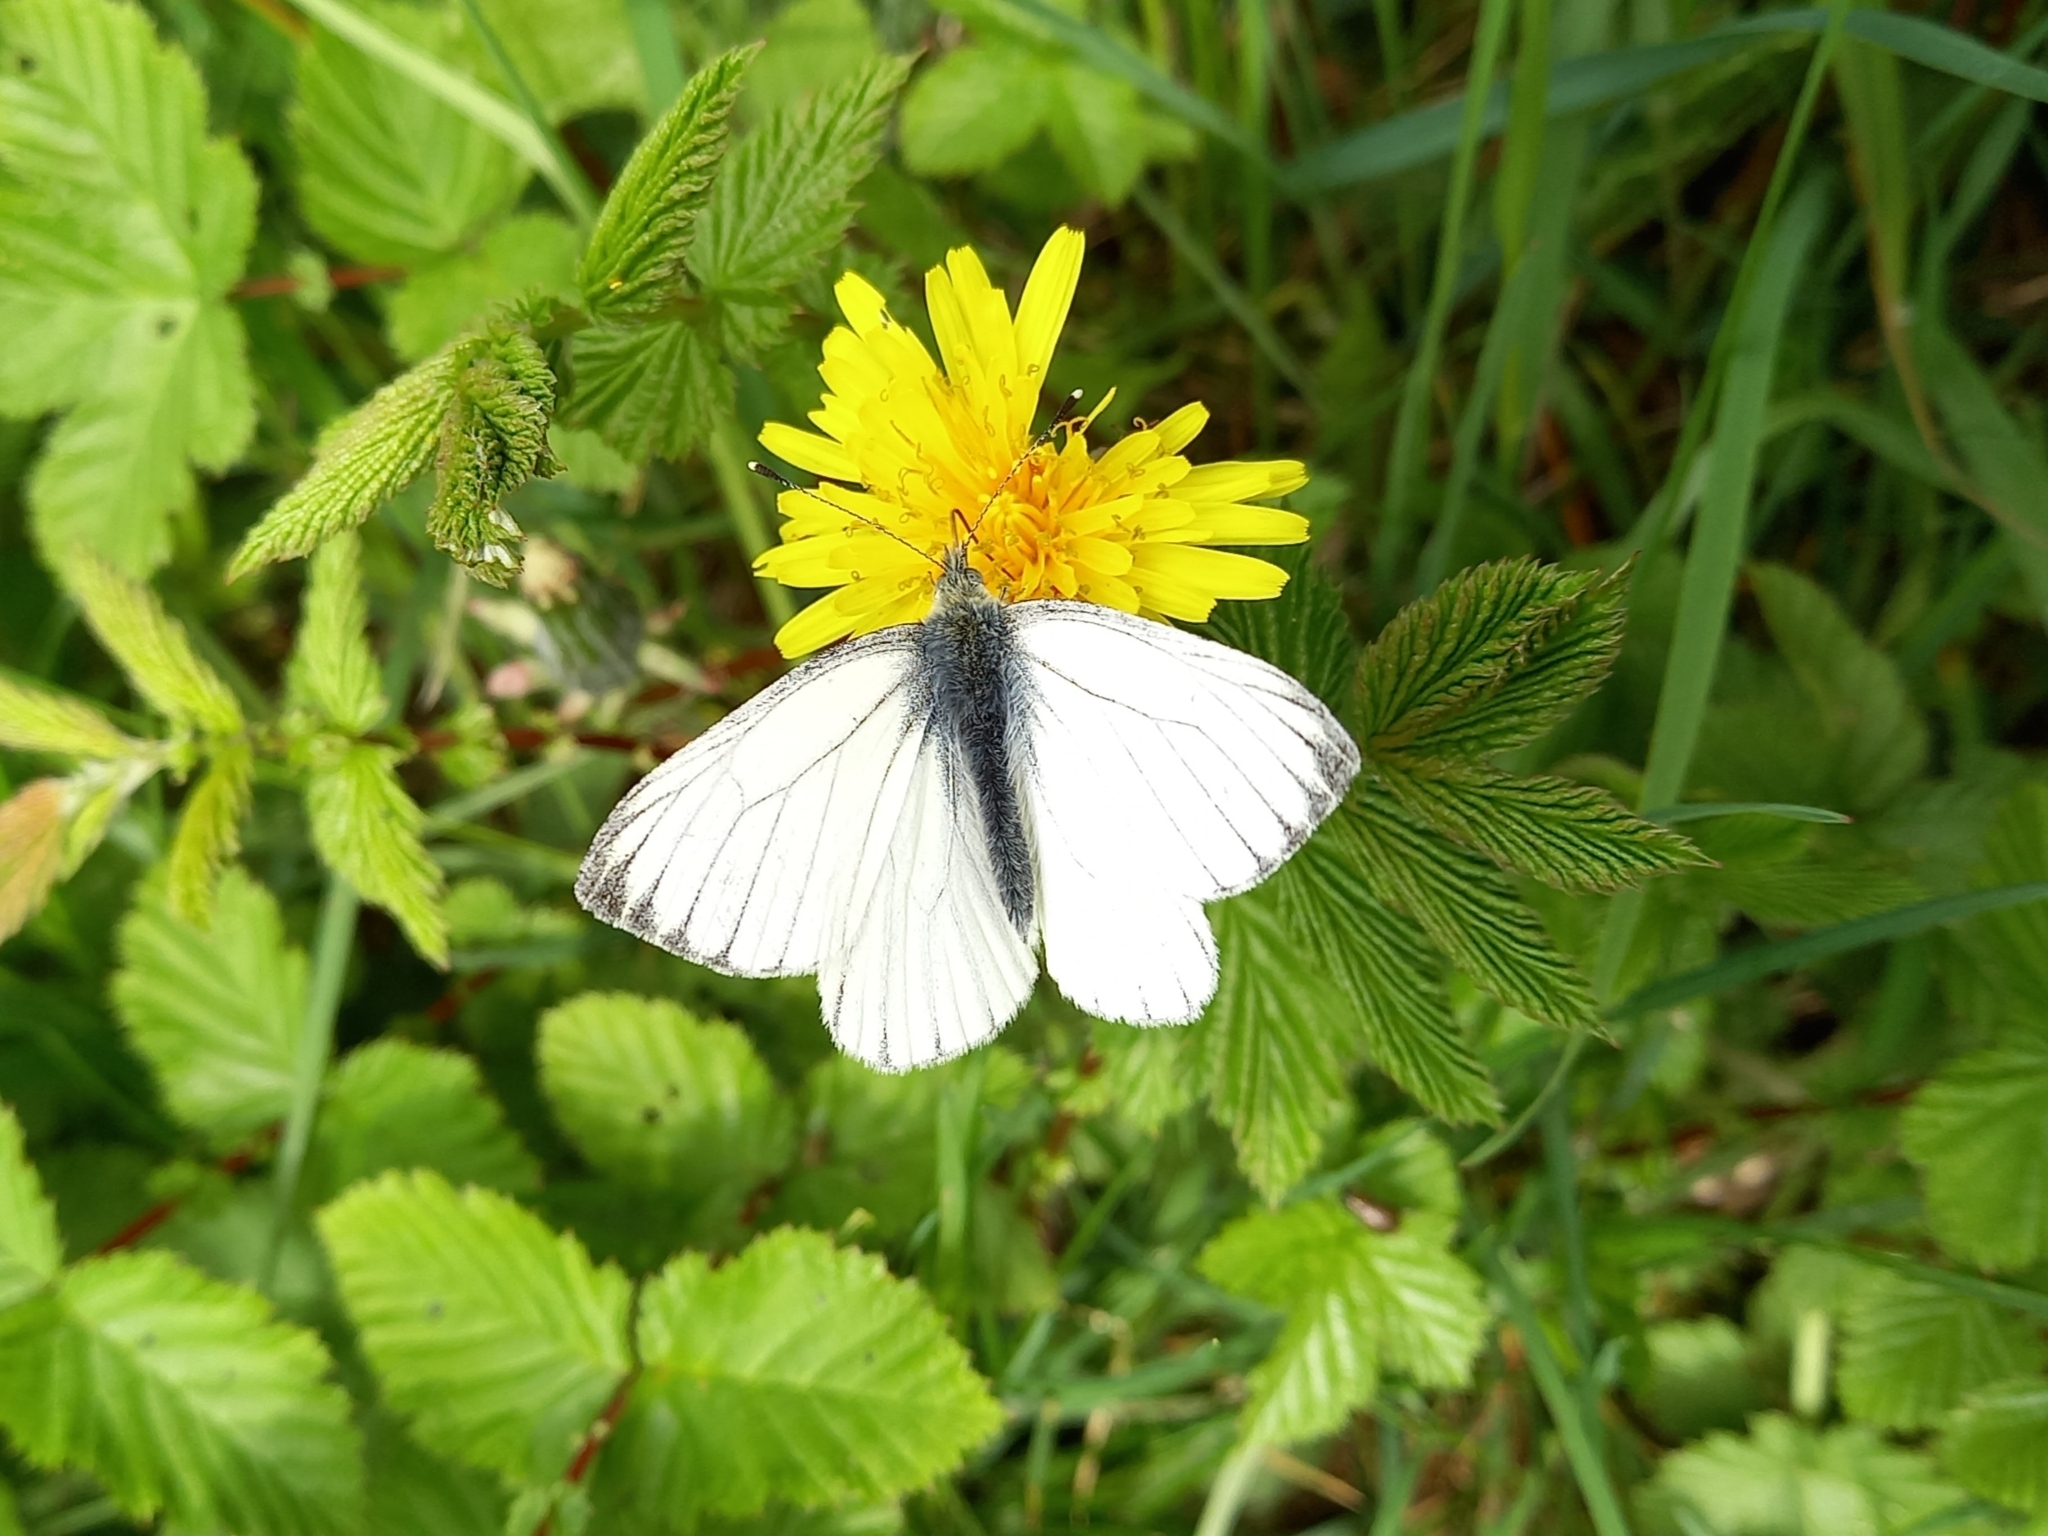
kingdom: Animalia
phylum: Arthropoda
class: Insecta
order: Lepidoptera
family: Pieridae
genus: Pieris
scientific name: Pieris napi
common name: Green-veined white
